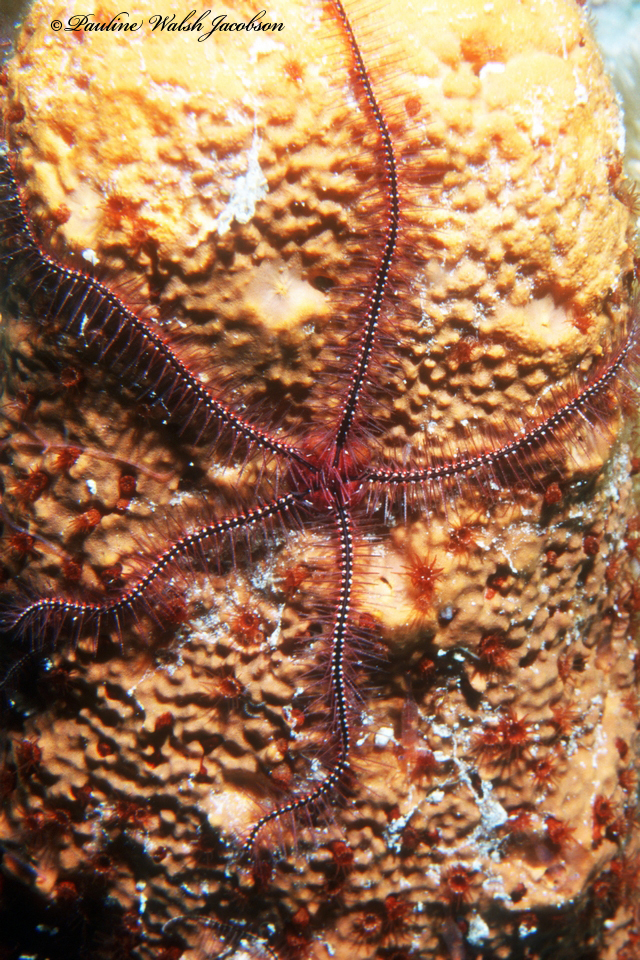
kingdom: Animalia
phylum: Echinodermata
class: Ophiuroidea
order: Amphilepidida
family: Ophiotrichidae
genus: Ophiothrix
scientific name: Ophiothrix suensonii
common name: Sponge brittle star
